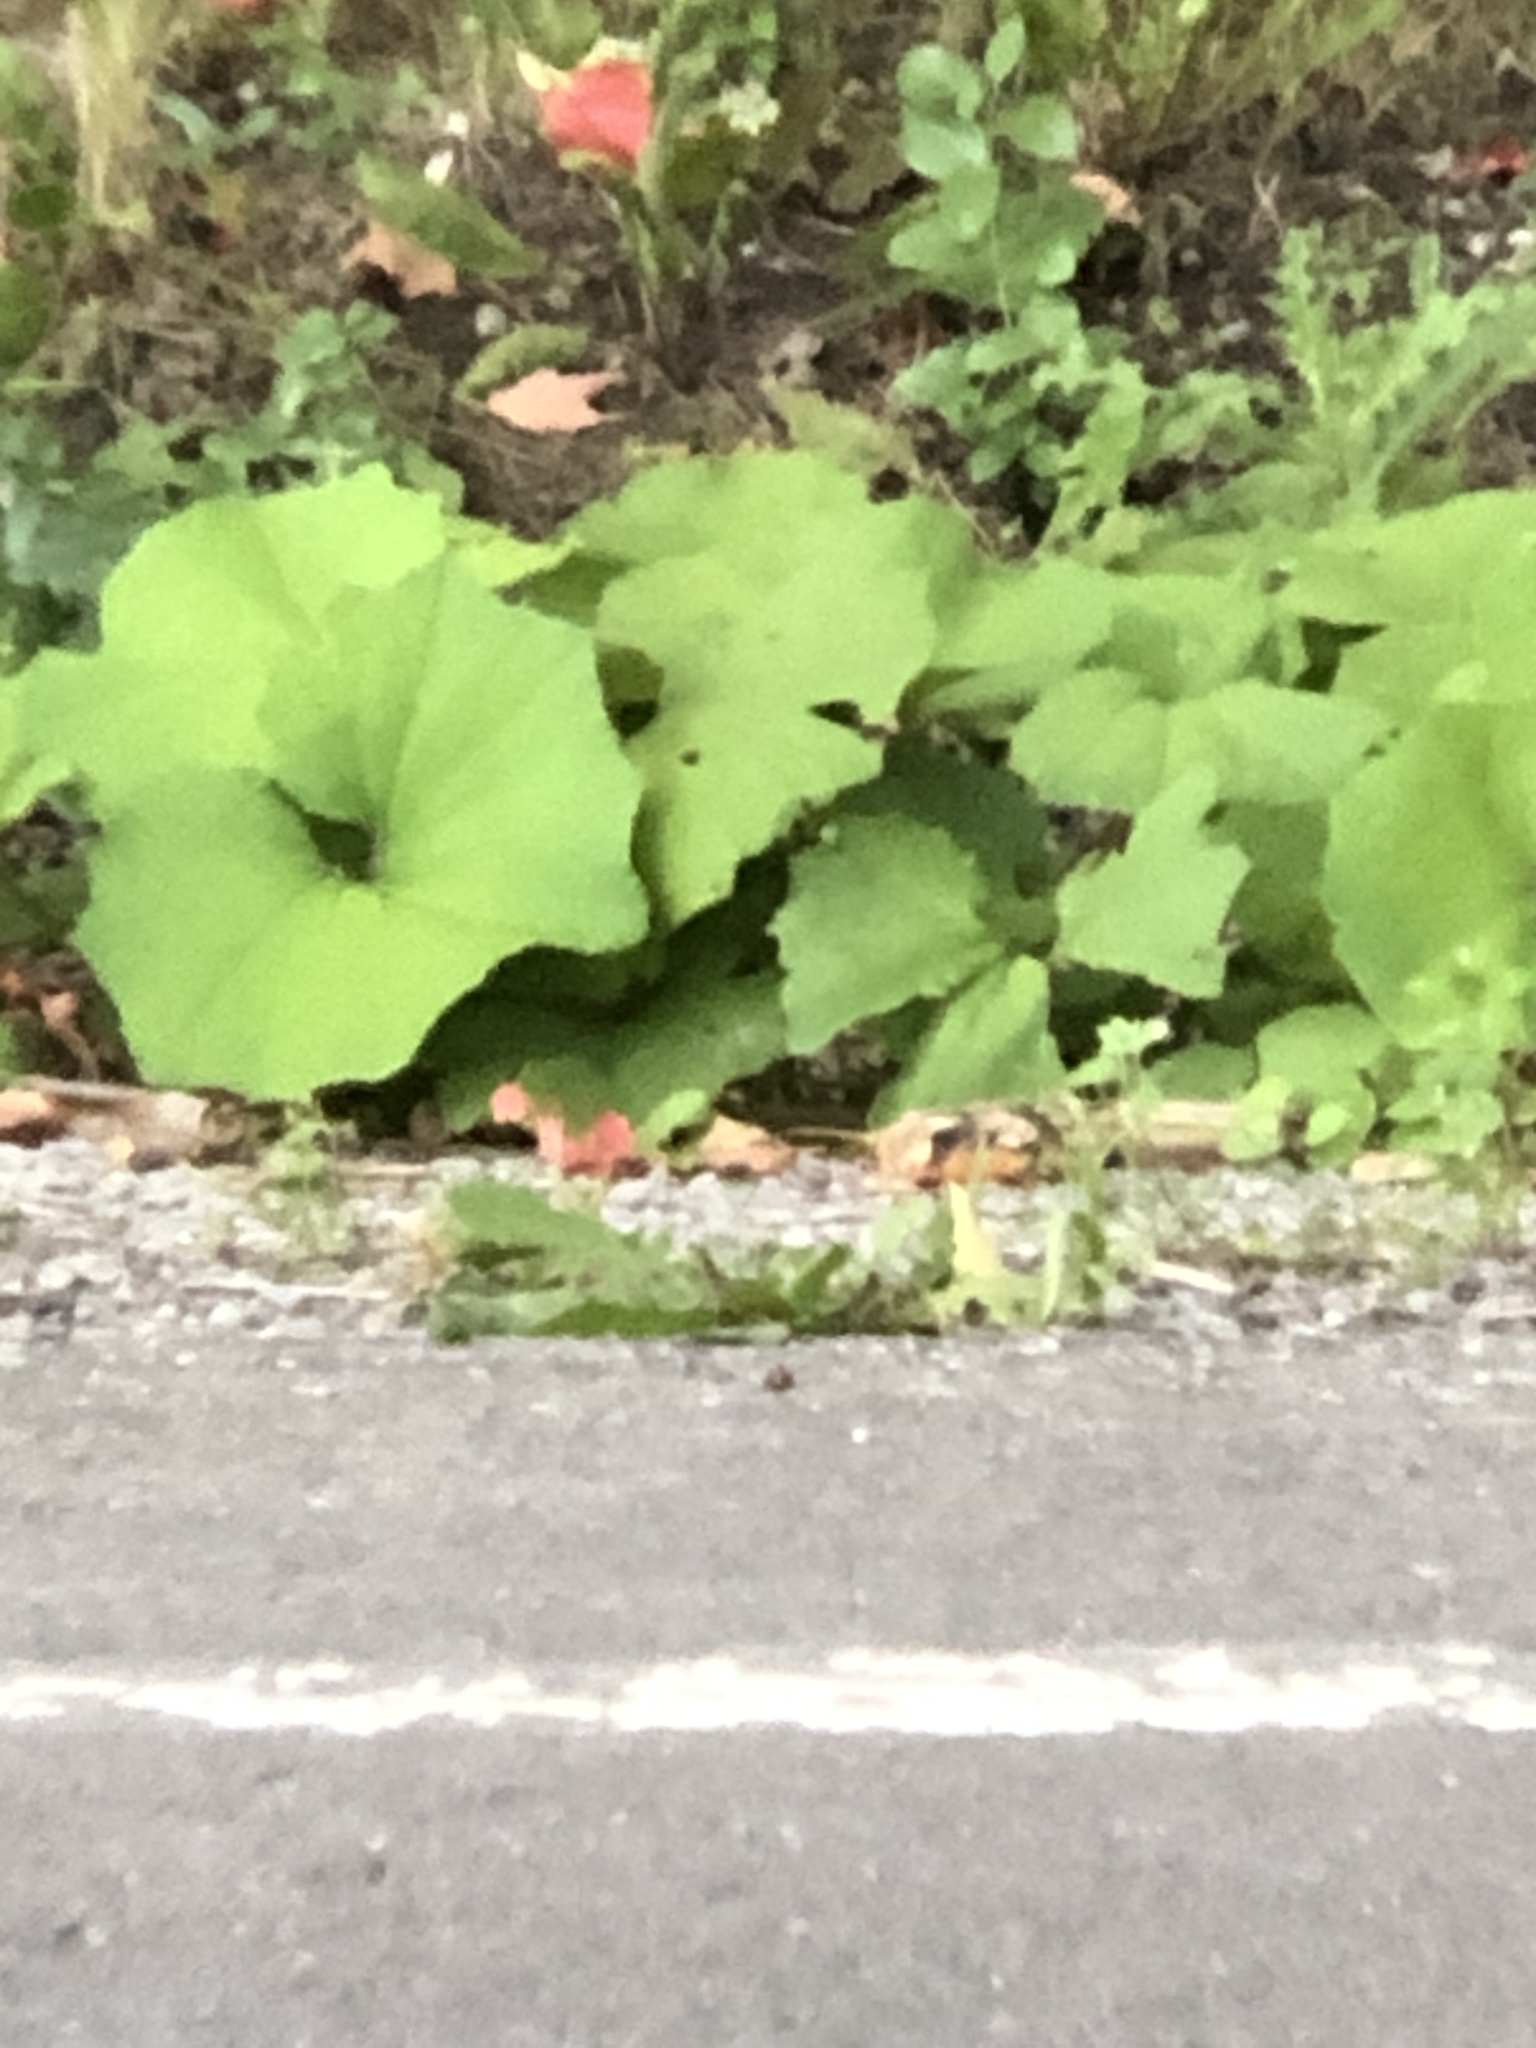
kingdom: Plantae
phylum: Tracheophyta
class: Magnoliopsida
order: Asterales
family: Asteraceae
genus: Tussilago
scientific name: Tussilago farfara
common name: Coltsfoot
